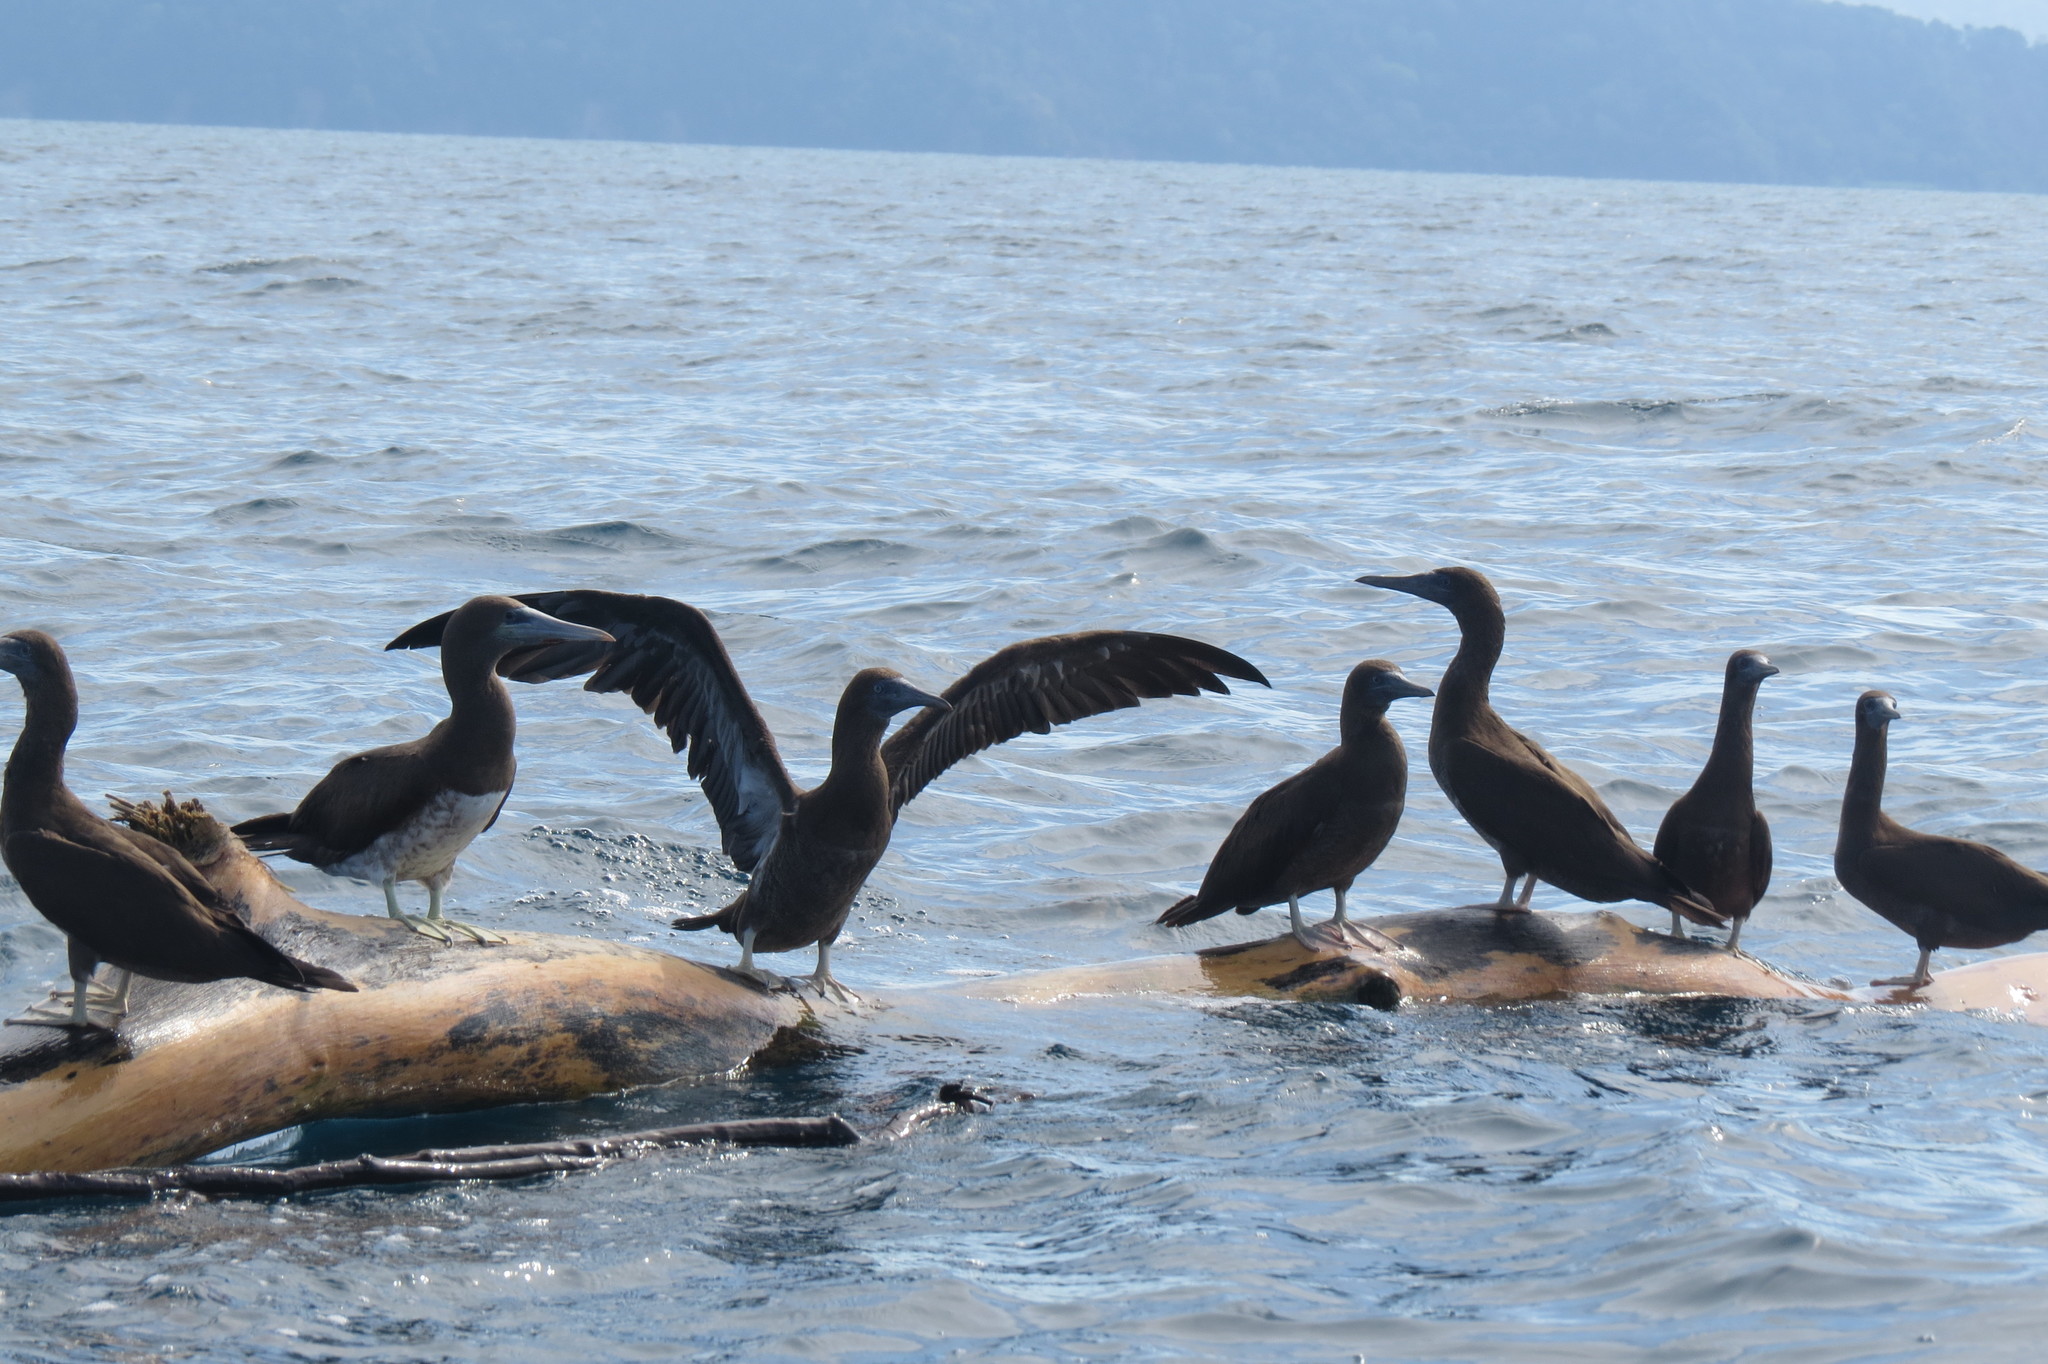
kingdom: Animalia
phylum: Chordata
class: Aves
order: Suliformes
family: Sulidae
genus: Sula
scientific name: Sula leucogaster
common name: Brown booby
